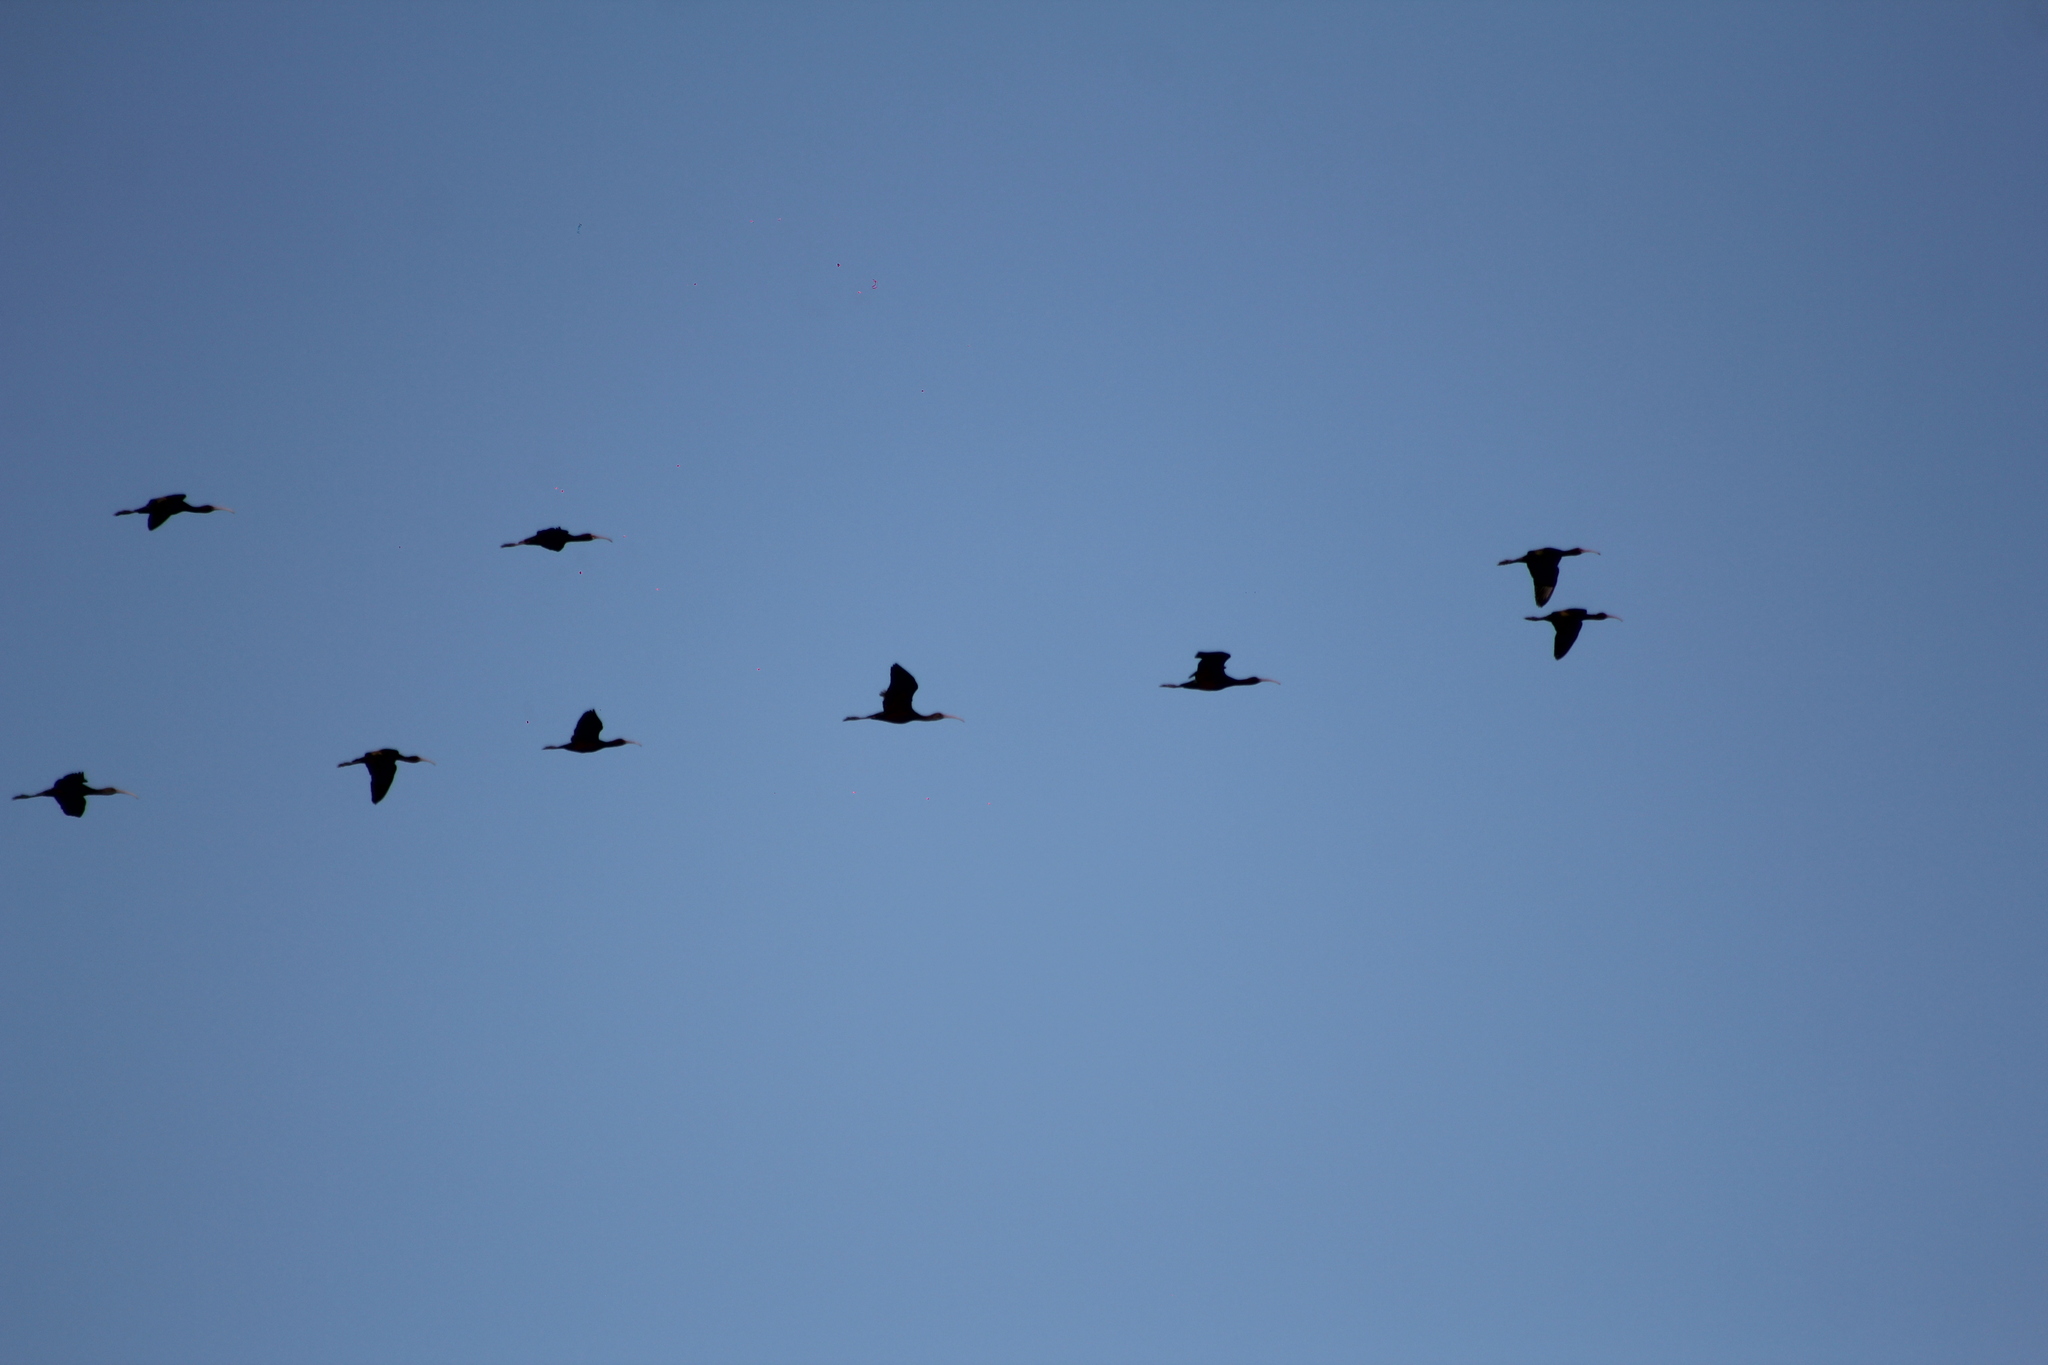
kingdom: Animalia
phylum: Chordata
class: Aves
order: Pelecaniformes
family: Threskiornithidae
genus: Plegadis
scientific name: Plegadis chihi
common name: White-faced ibis
